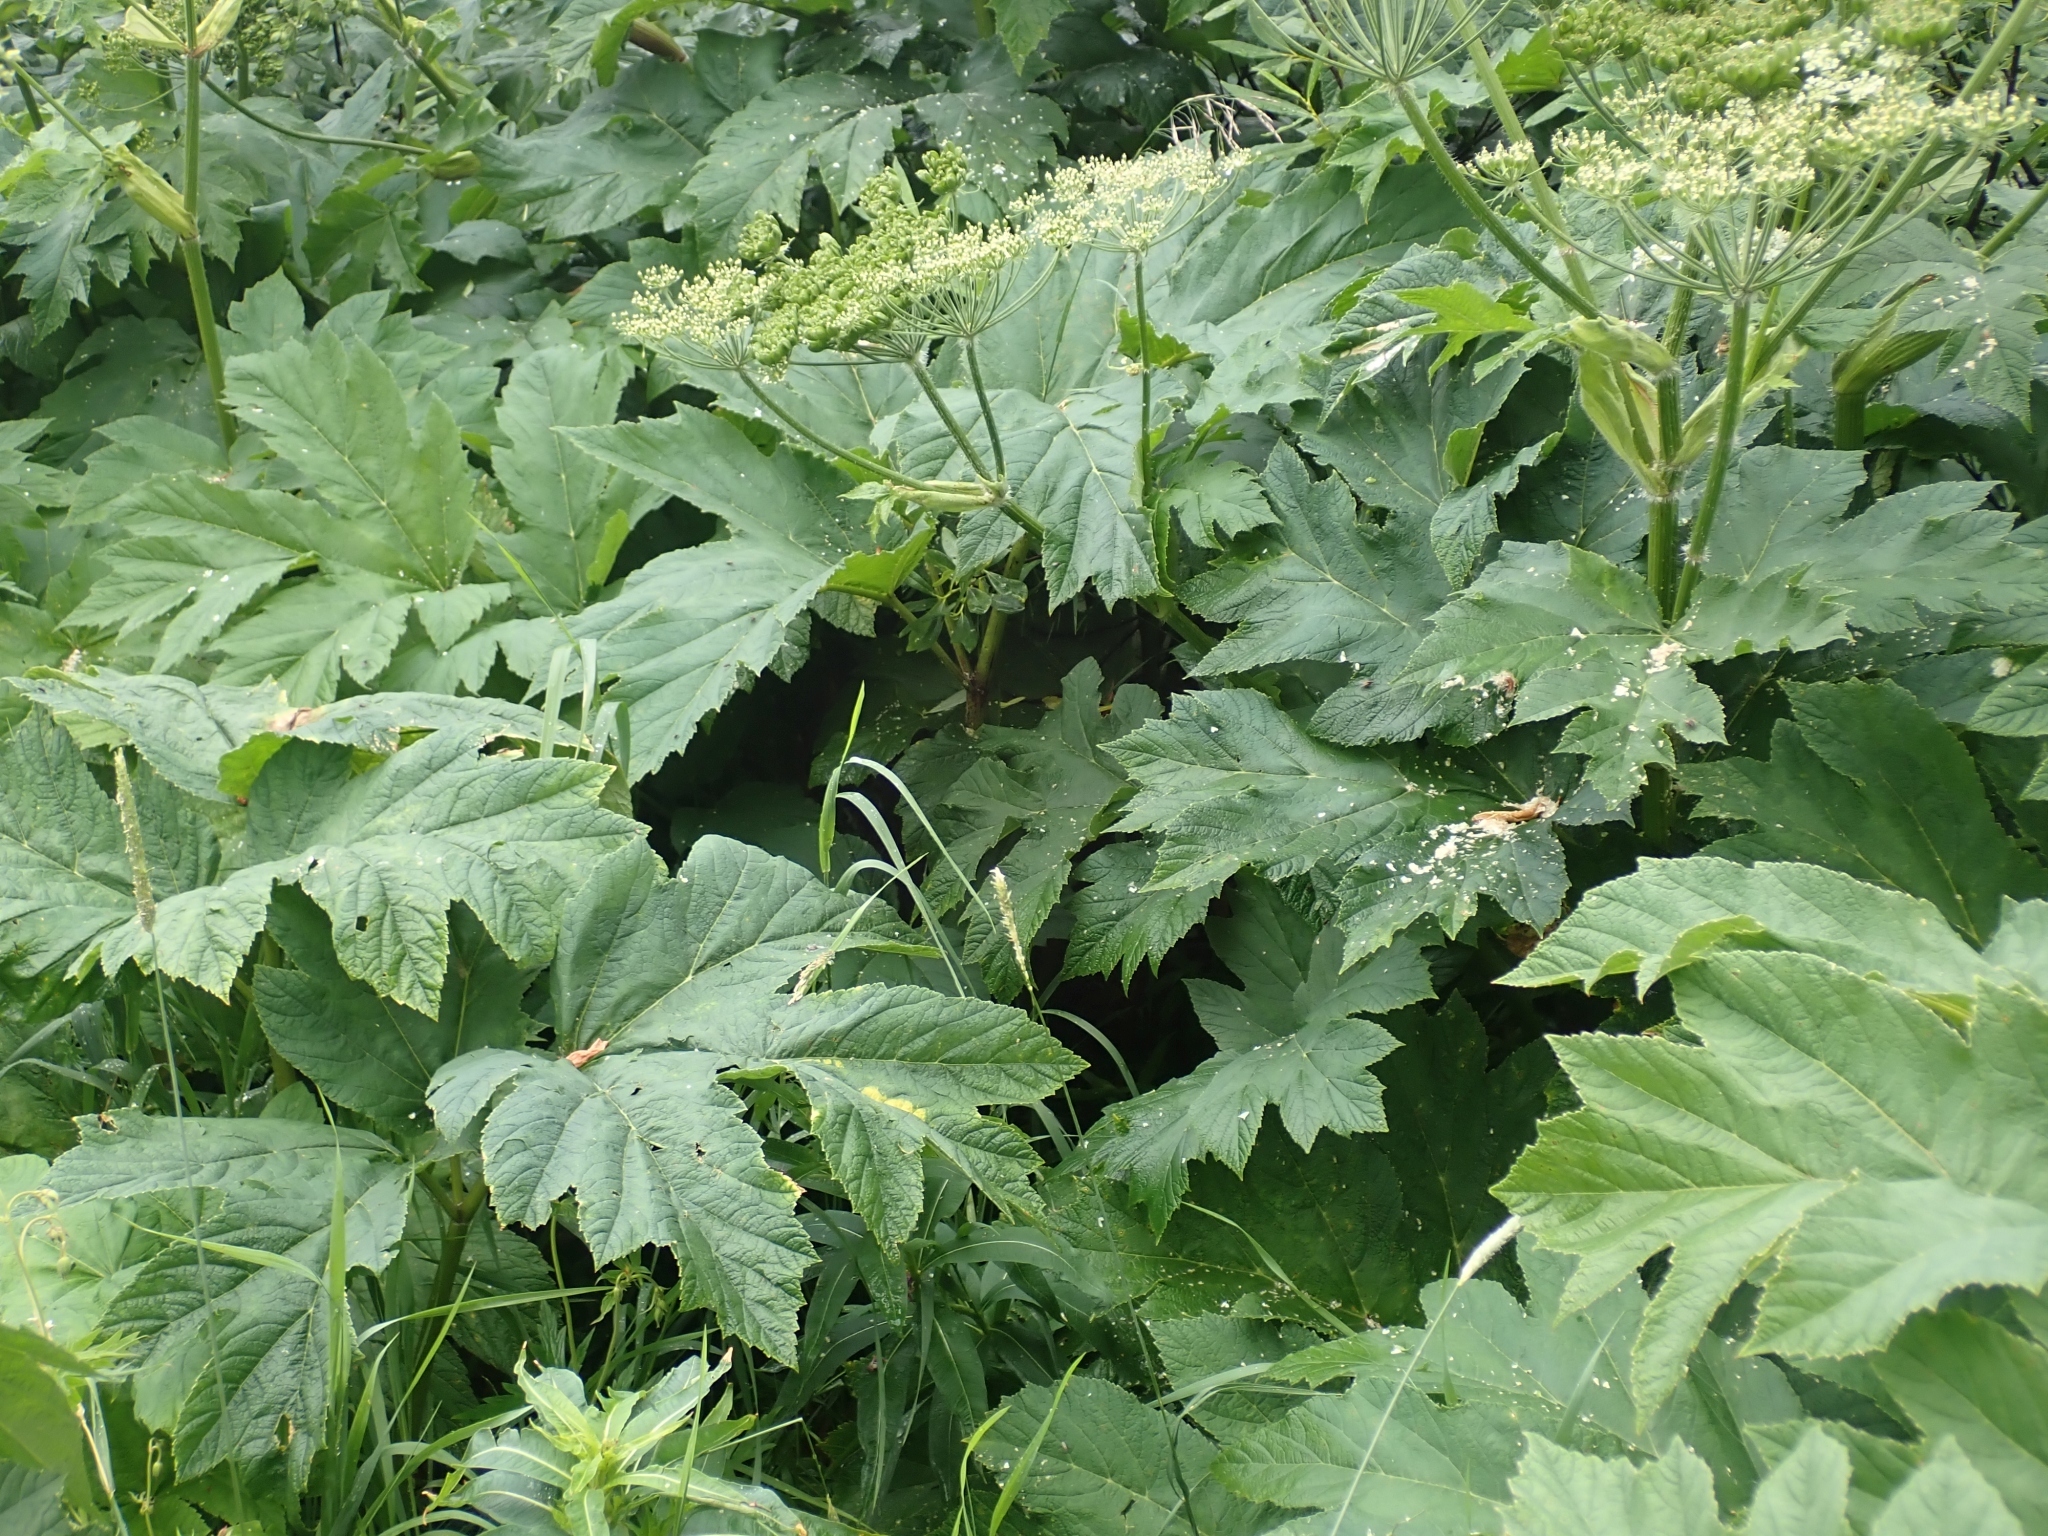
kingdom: Plantae
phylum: Tracheophyta
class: Magnoliopsida
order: Apiales
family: Apiaceae
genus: Heracleum
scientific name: Heracleum maximum
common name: American cow parsnip
